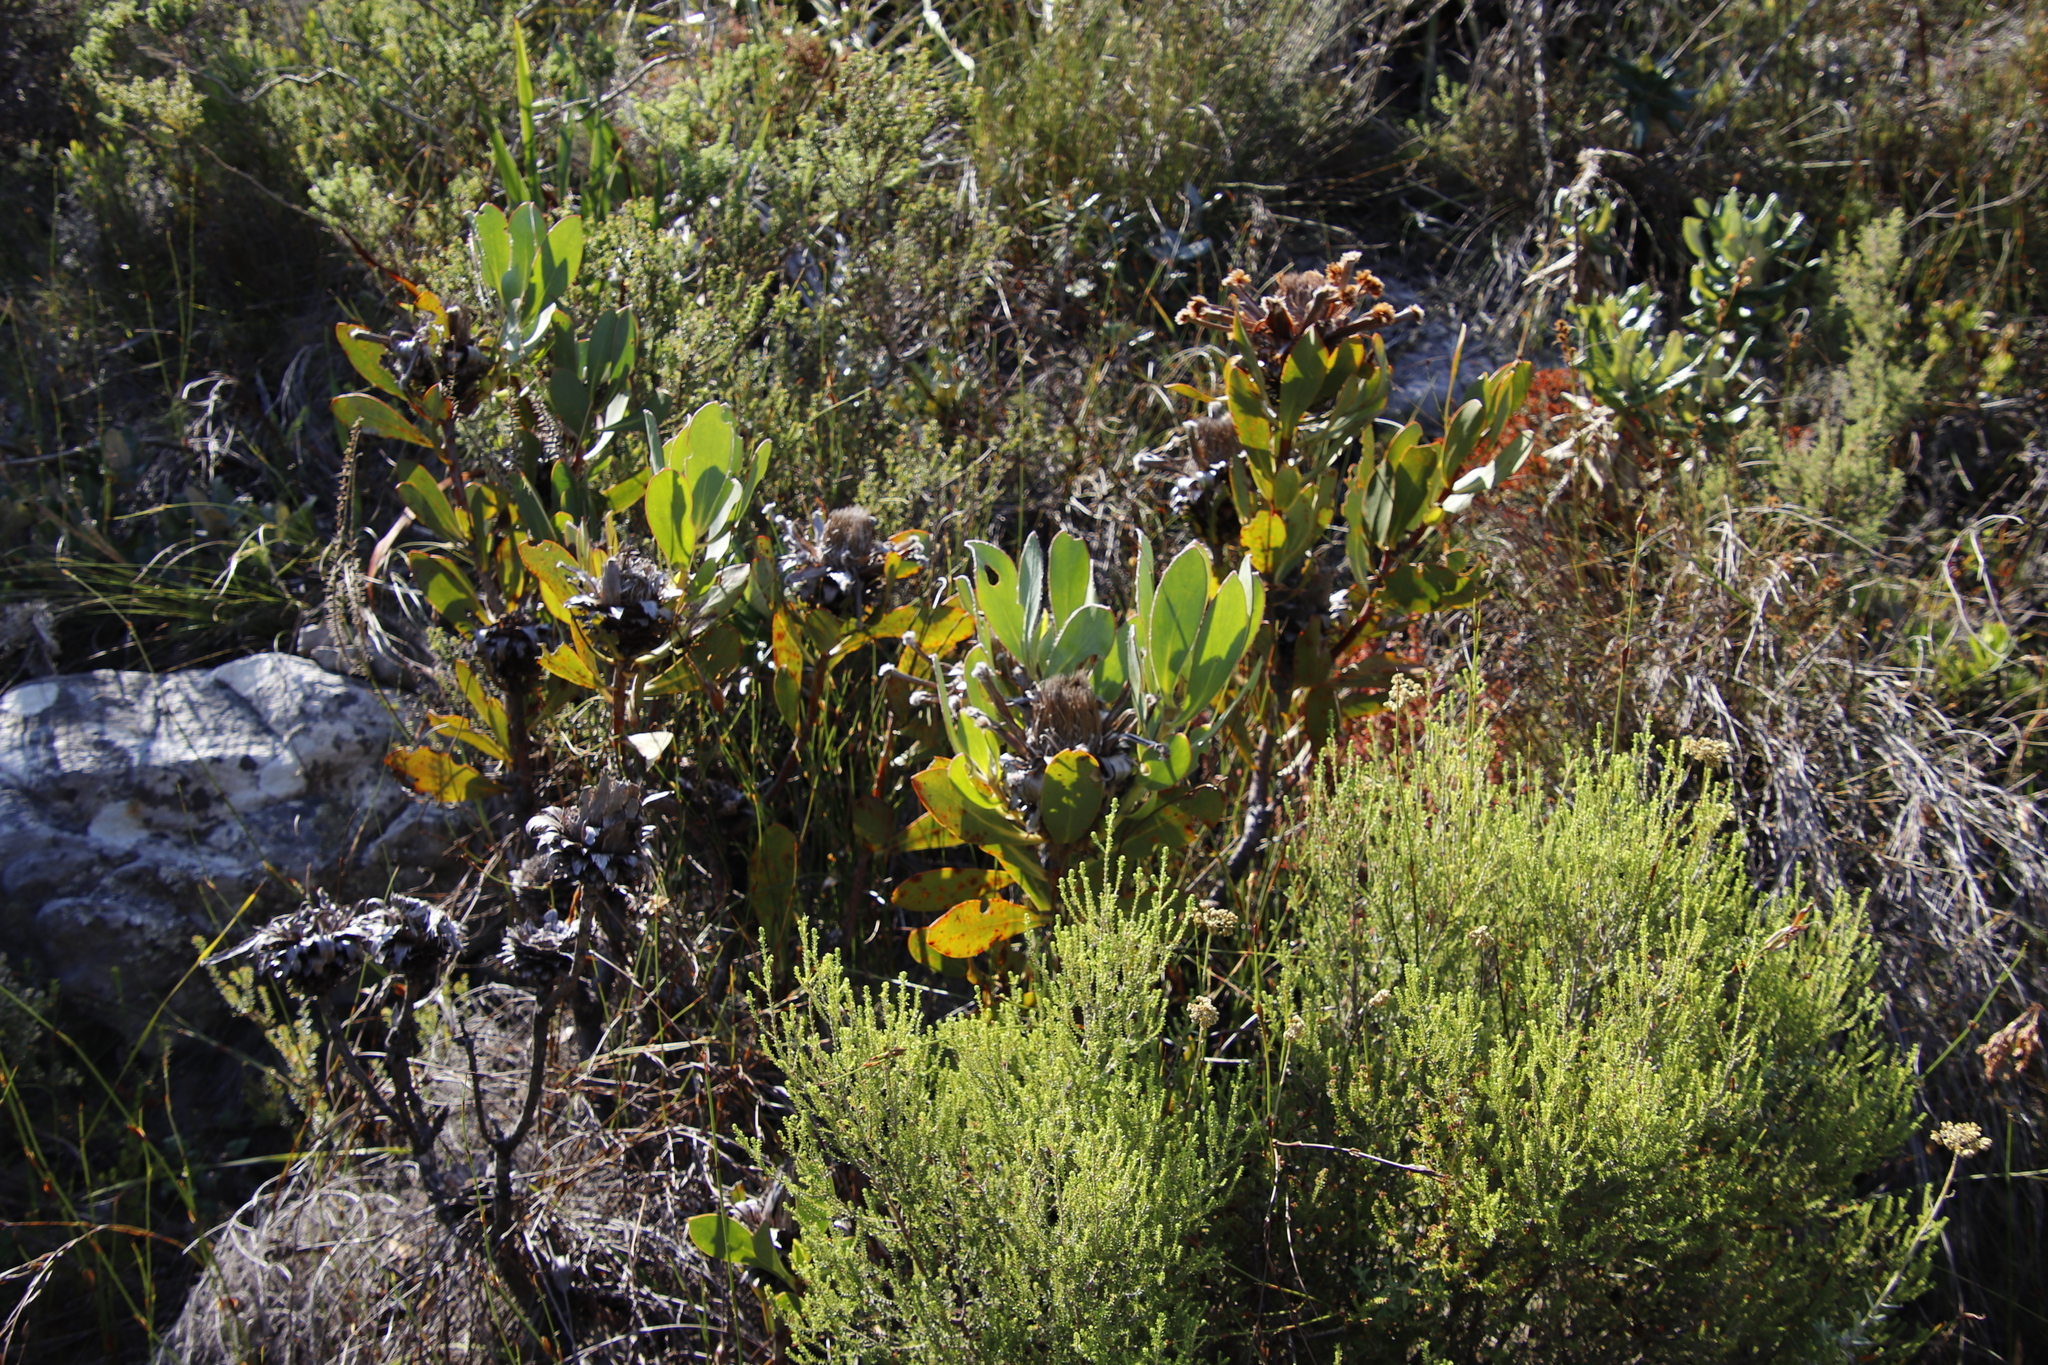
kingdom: Plantae
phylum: Tracheophyta
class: Magnoliopsida
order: Proteales
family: Proteaceae
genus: Protea
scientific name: Protea speciosa
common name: Brown-beard sugarbush
